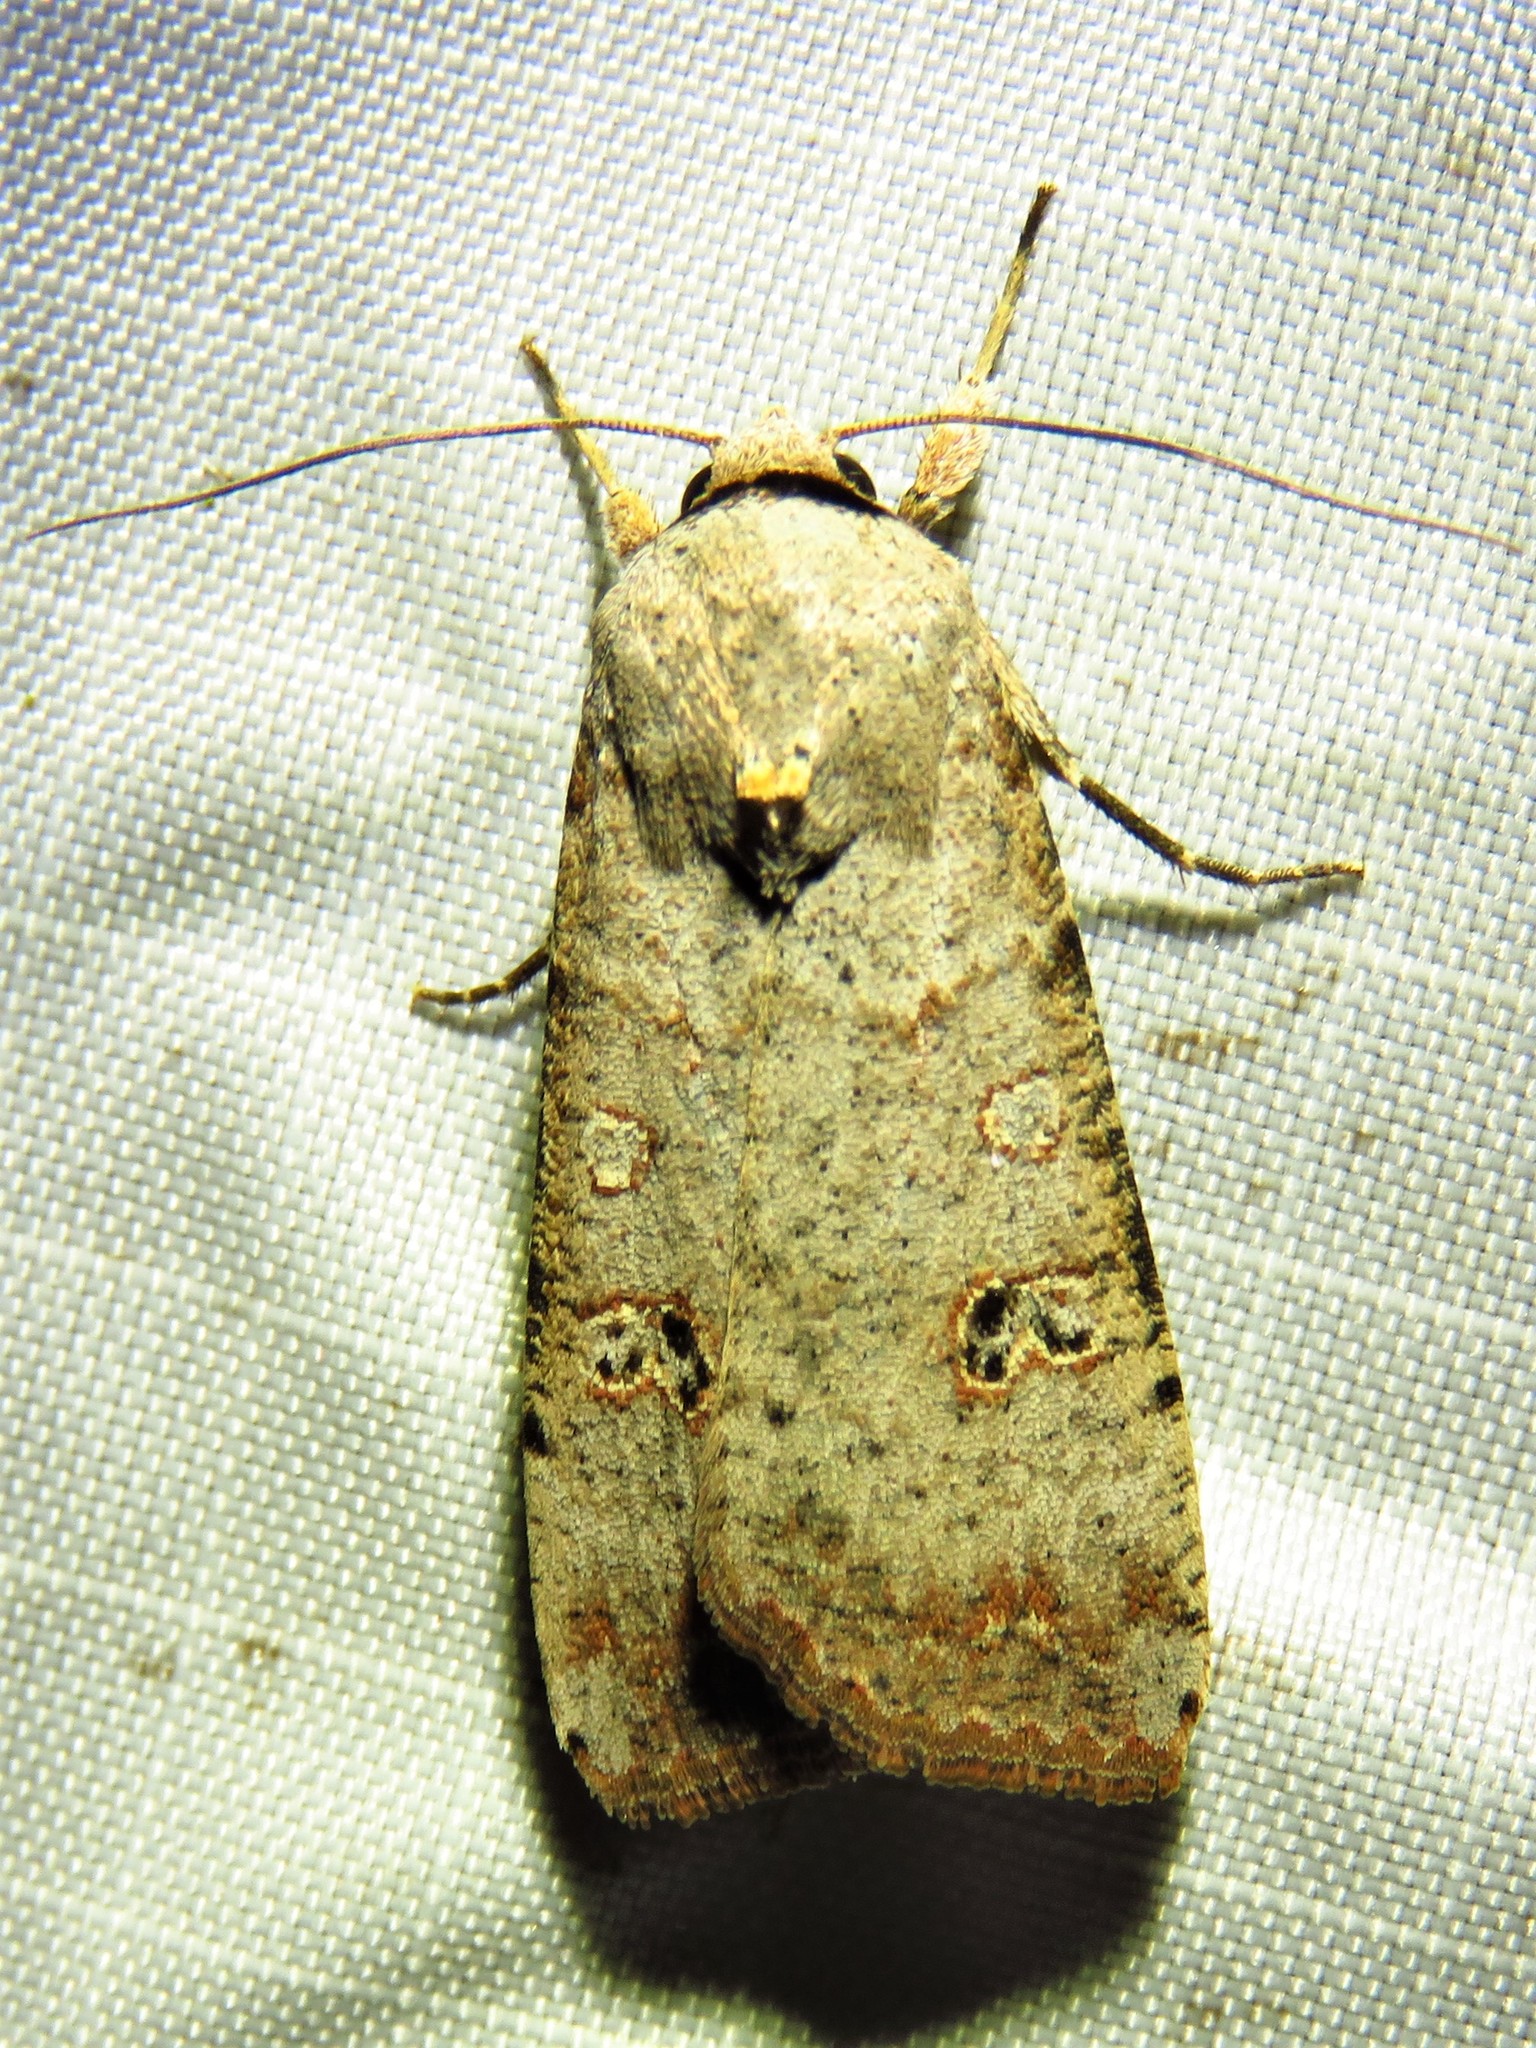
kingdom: Animalia
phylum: Arthropoda
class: Insecta
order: Lepidoptera
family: Noctuidae
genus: Anicla
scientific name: Anicla infecta
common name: Green cutworm
